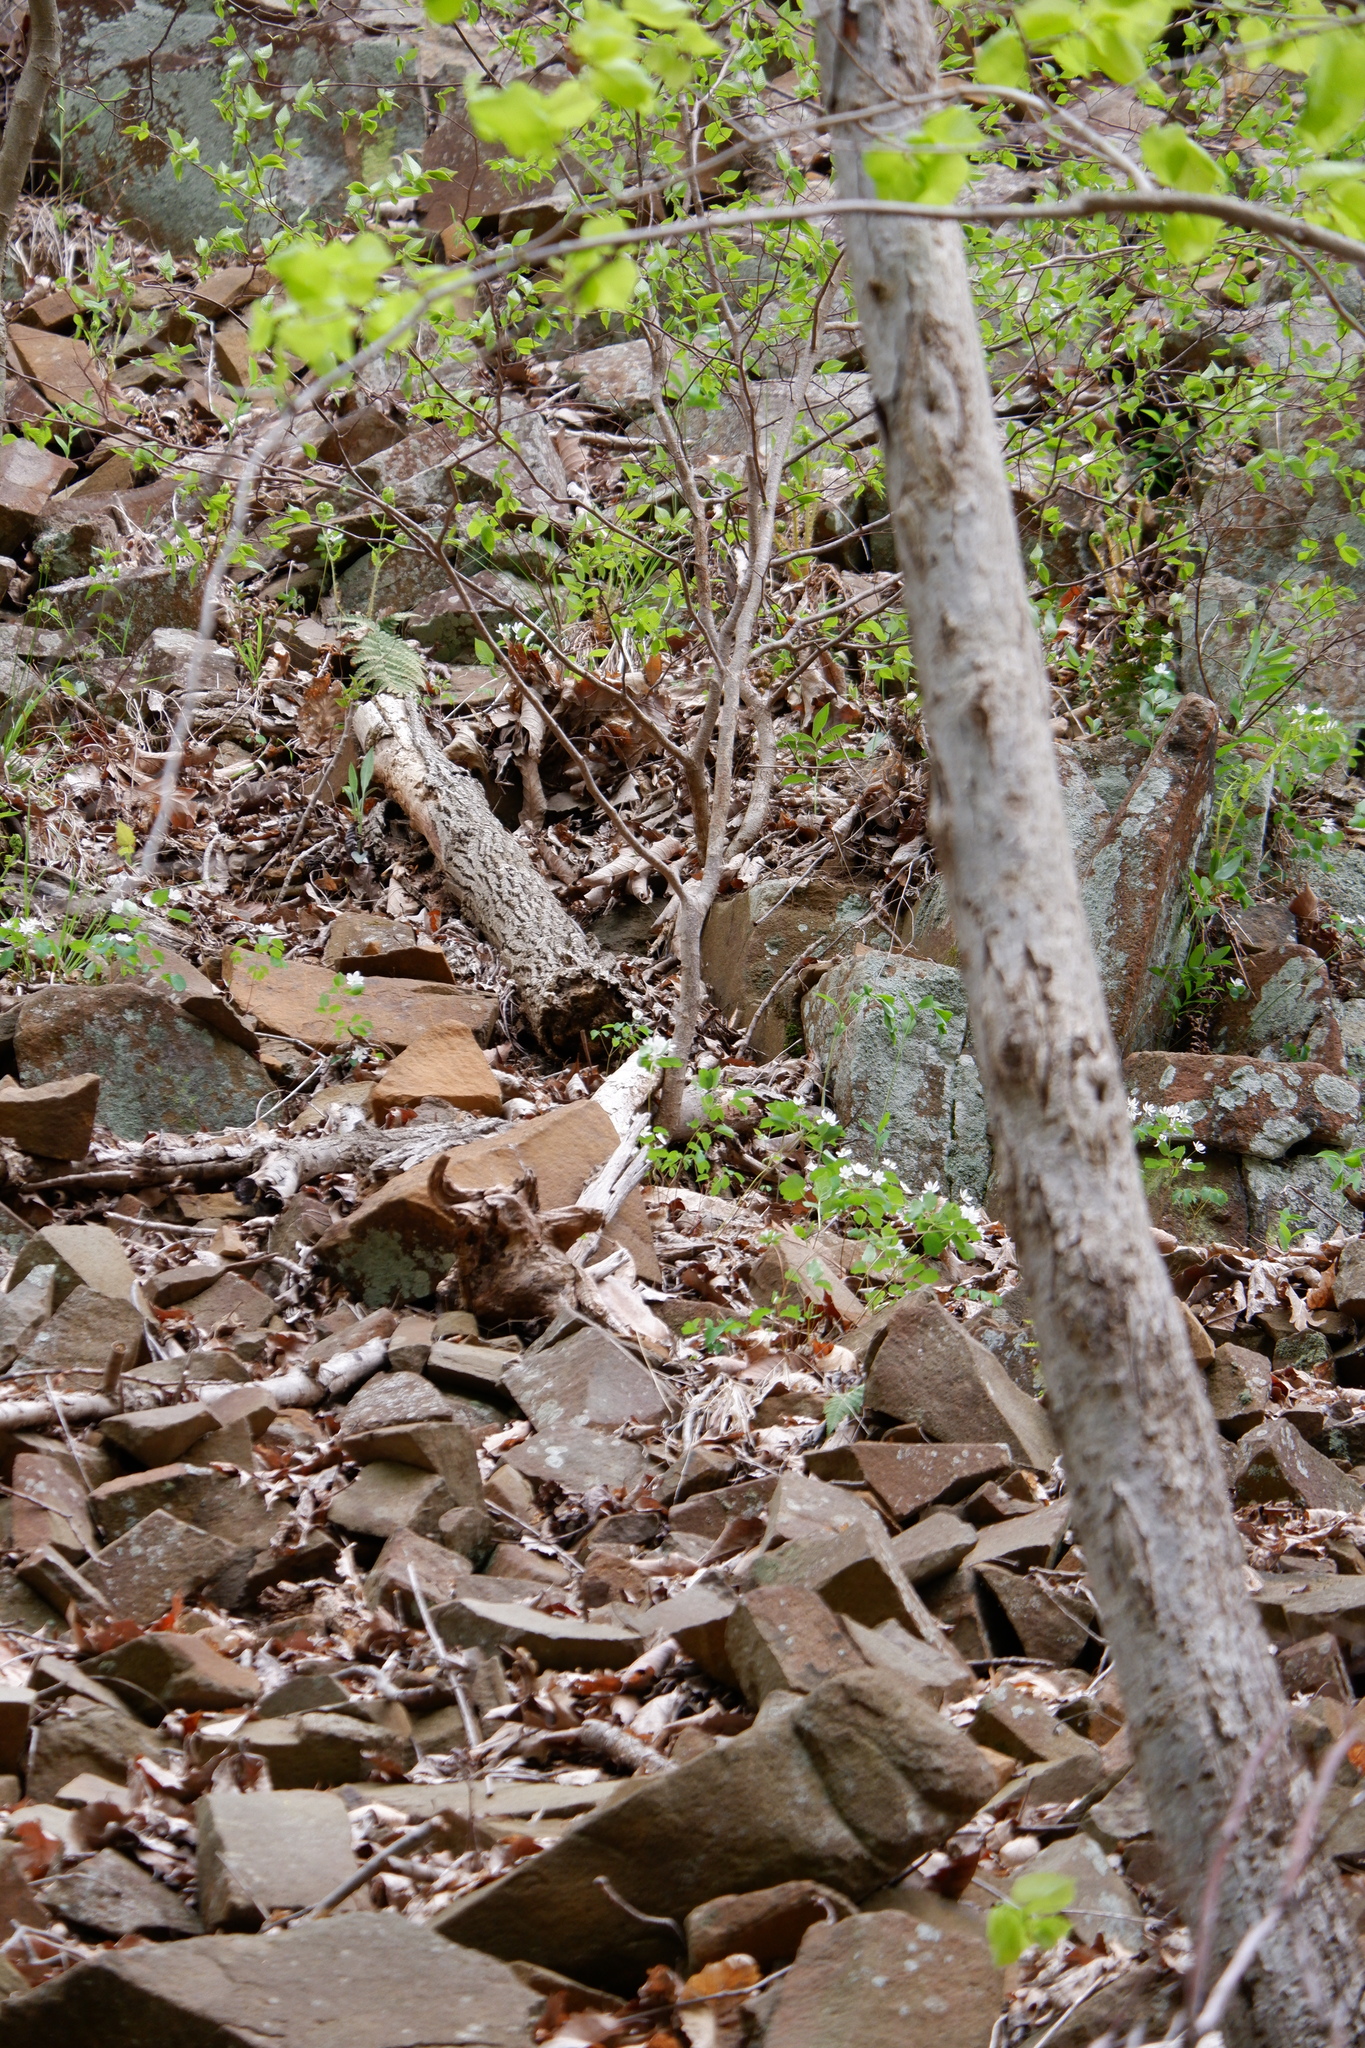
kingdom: Plantae
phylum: Tracheophyta
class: Magnoliopsida
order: Ranunculales
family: Ranunculaceae
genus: Thalictrum
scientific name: Thalictrum thalictroides
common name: Rue-anemone
